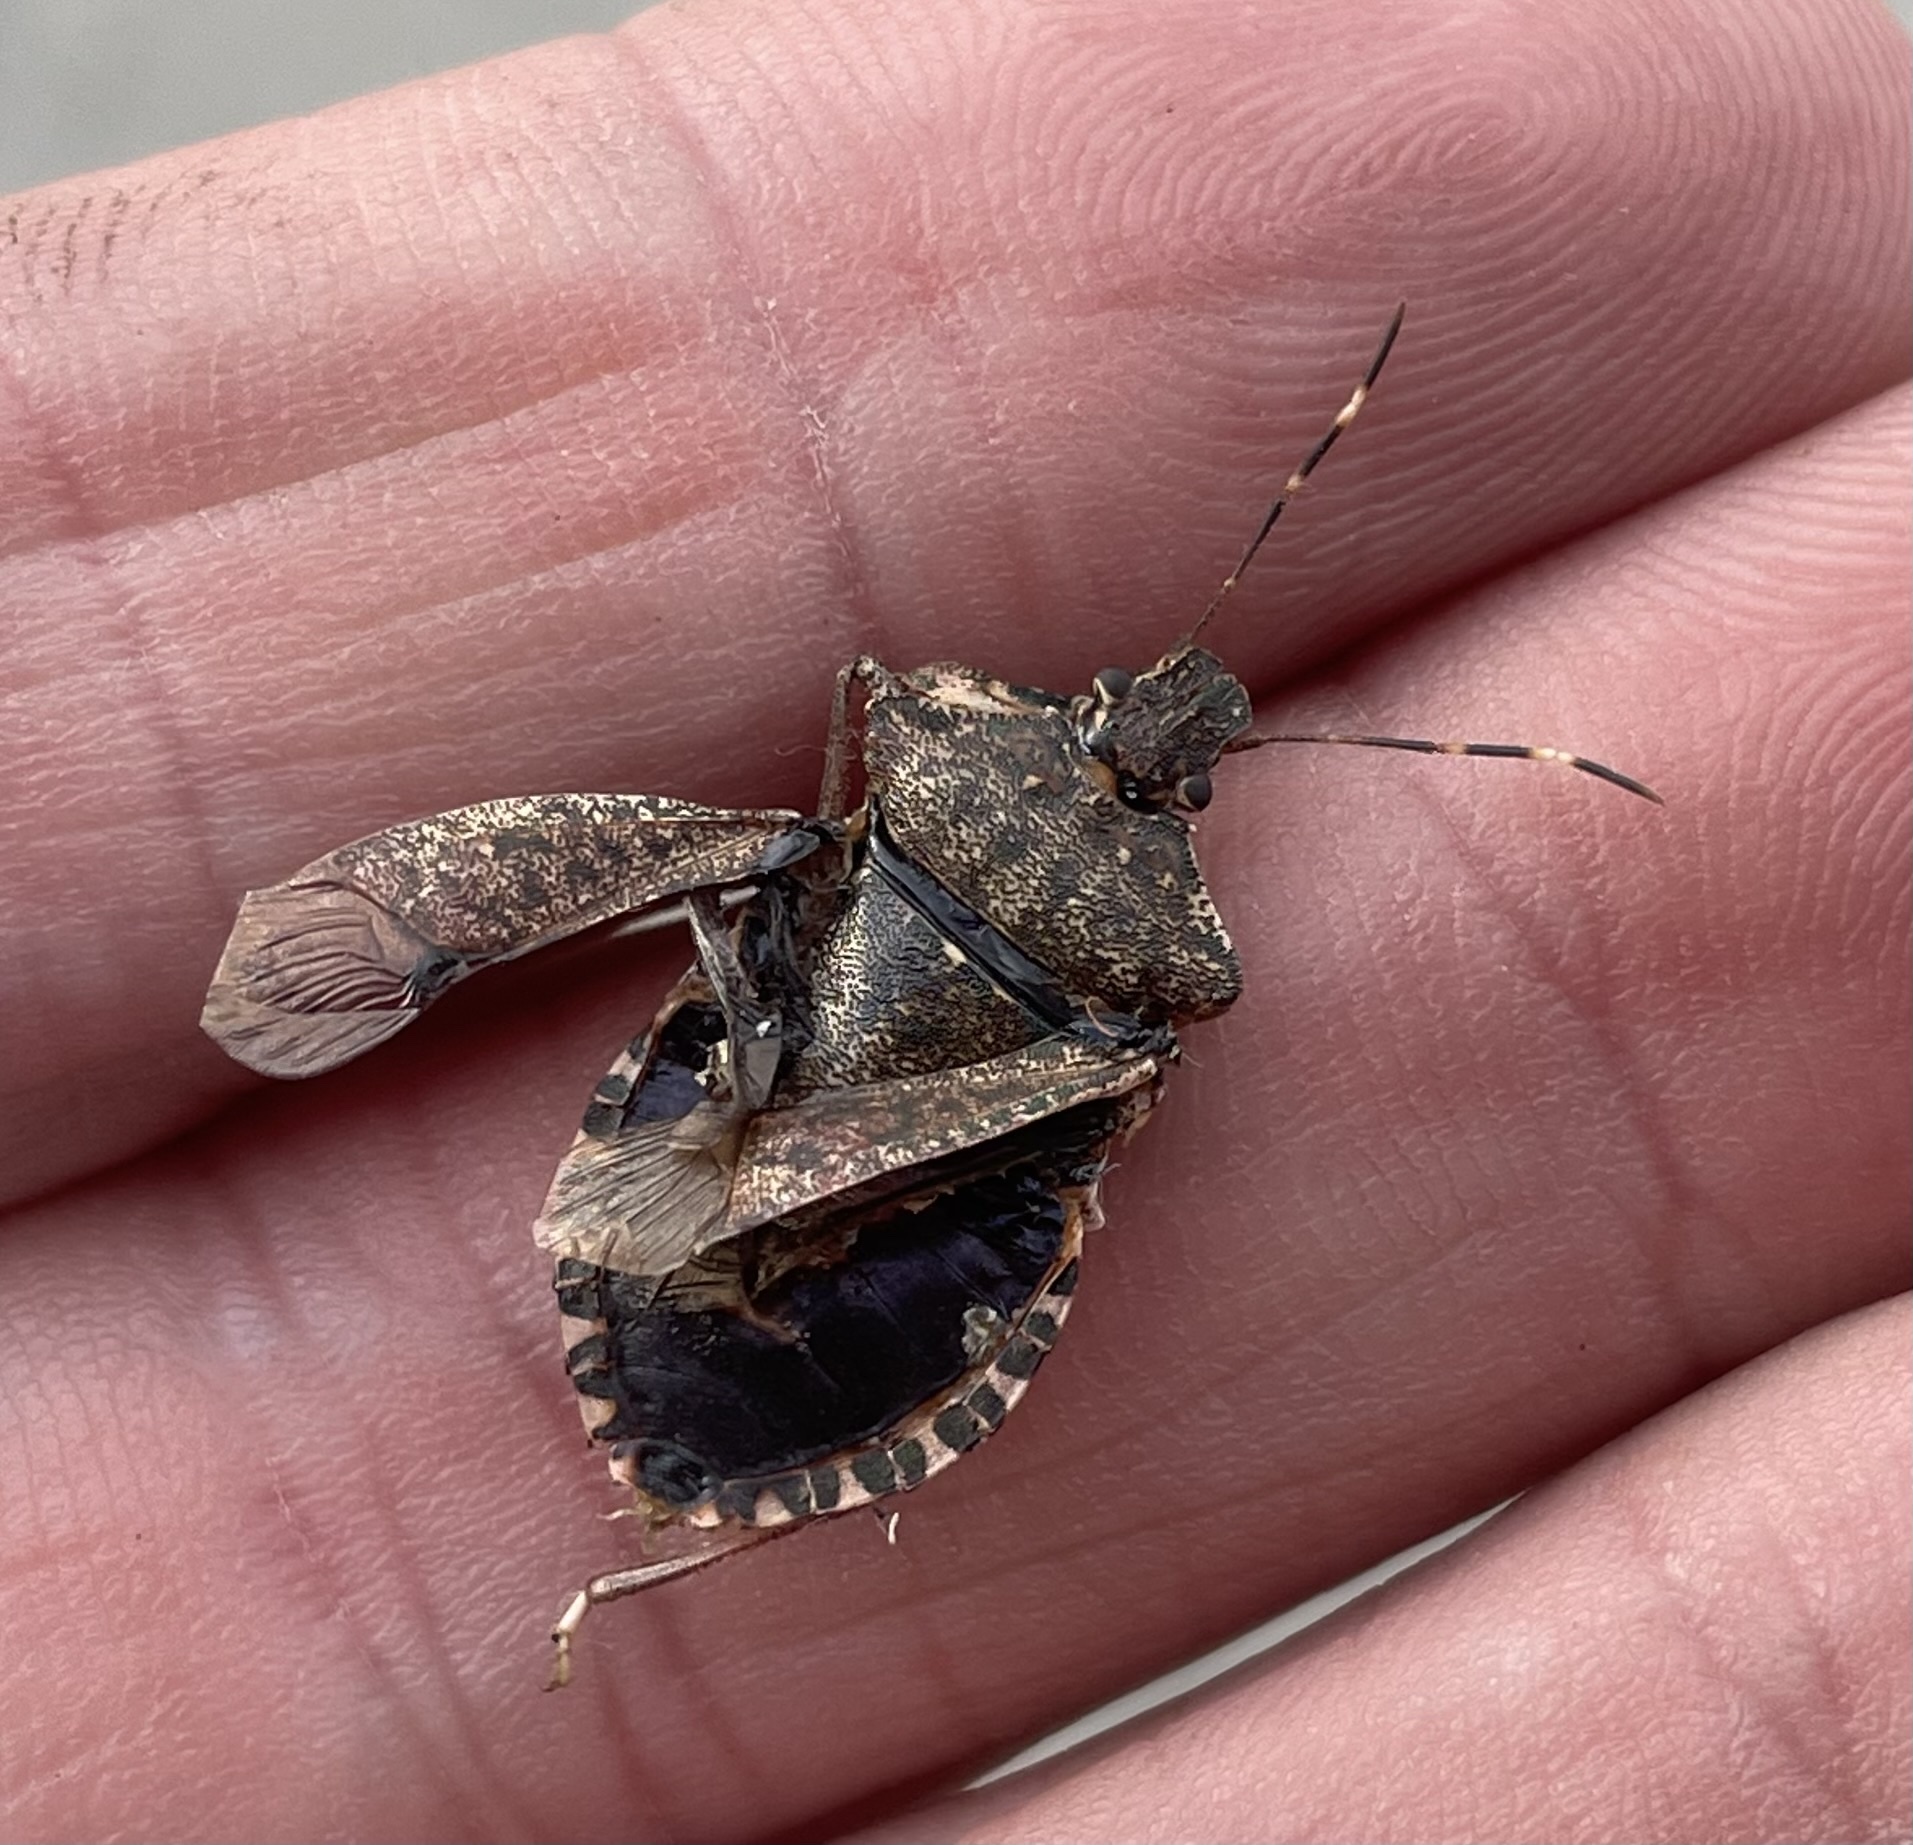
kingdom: Animalia
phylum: Arthropoda
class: Insecta
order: Hemiptera
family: Pentatomidae
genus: Halyomorpha
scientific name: Halyomorpha halys
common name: Brown marmorated stink bug
